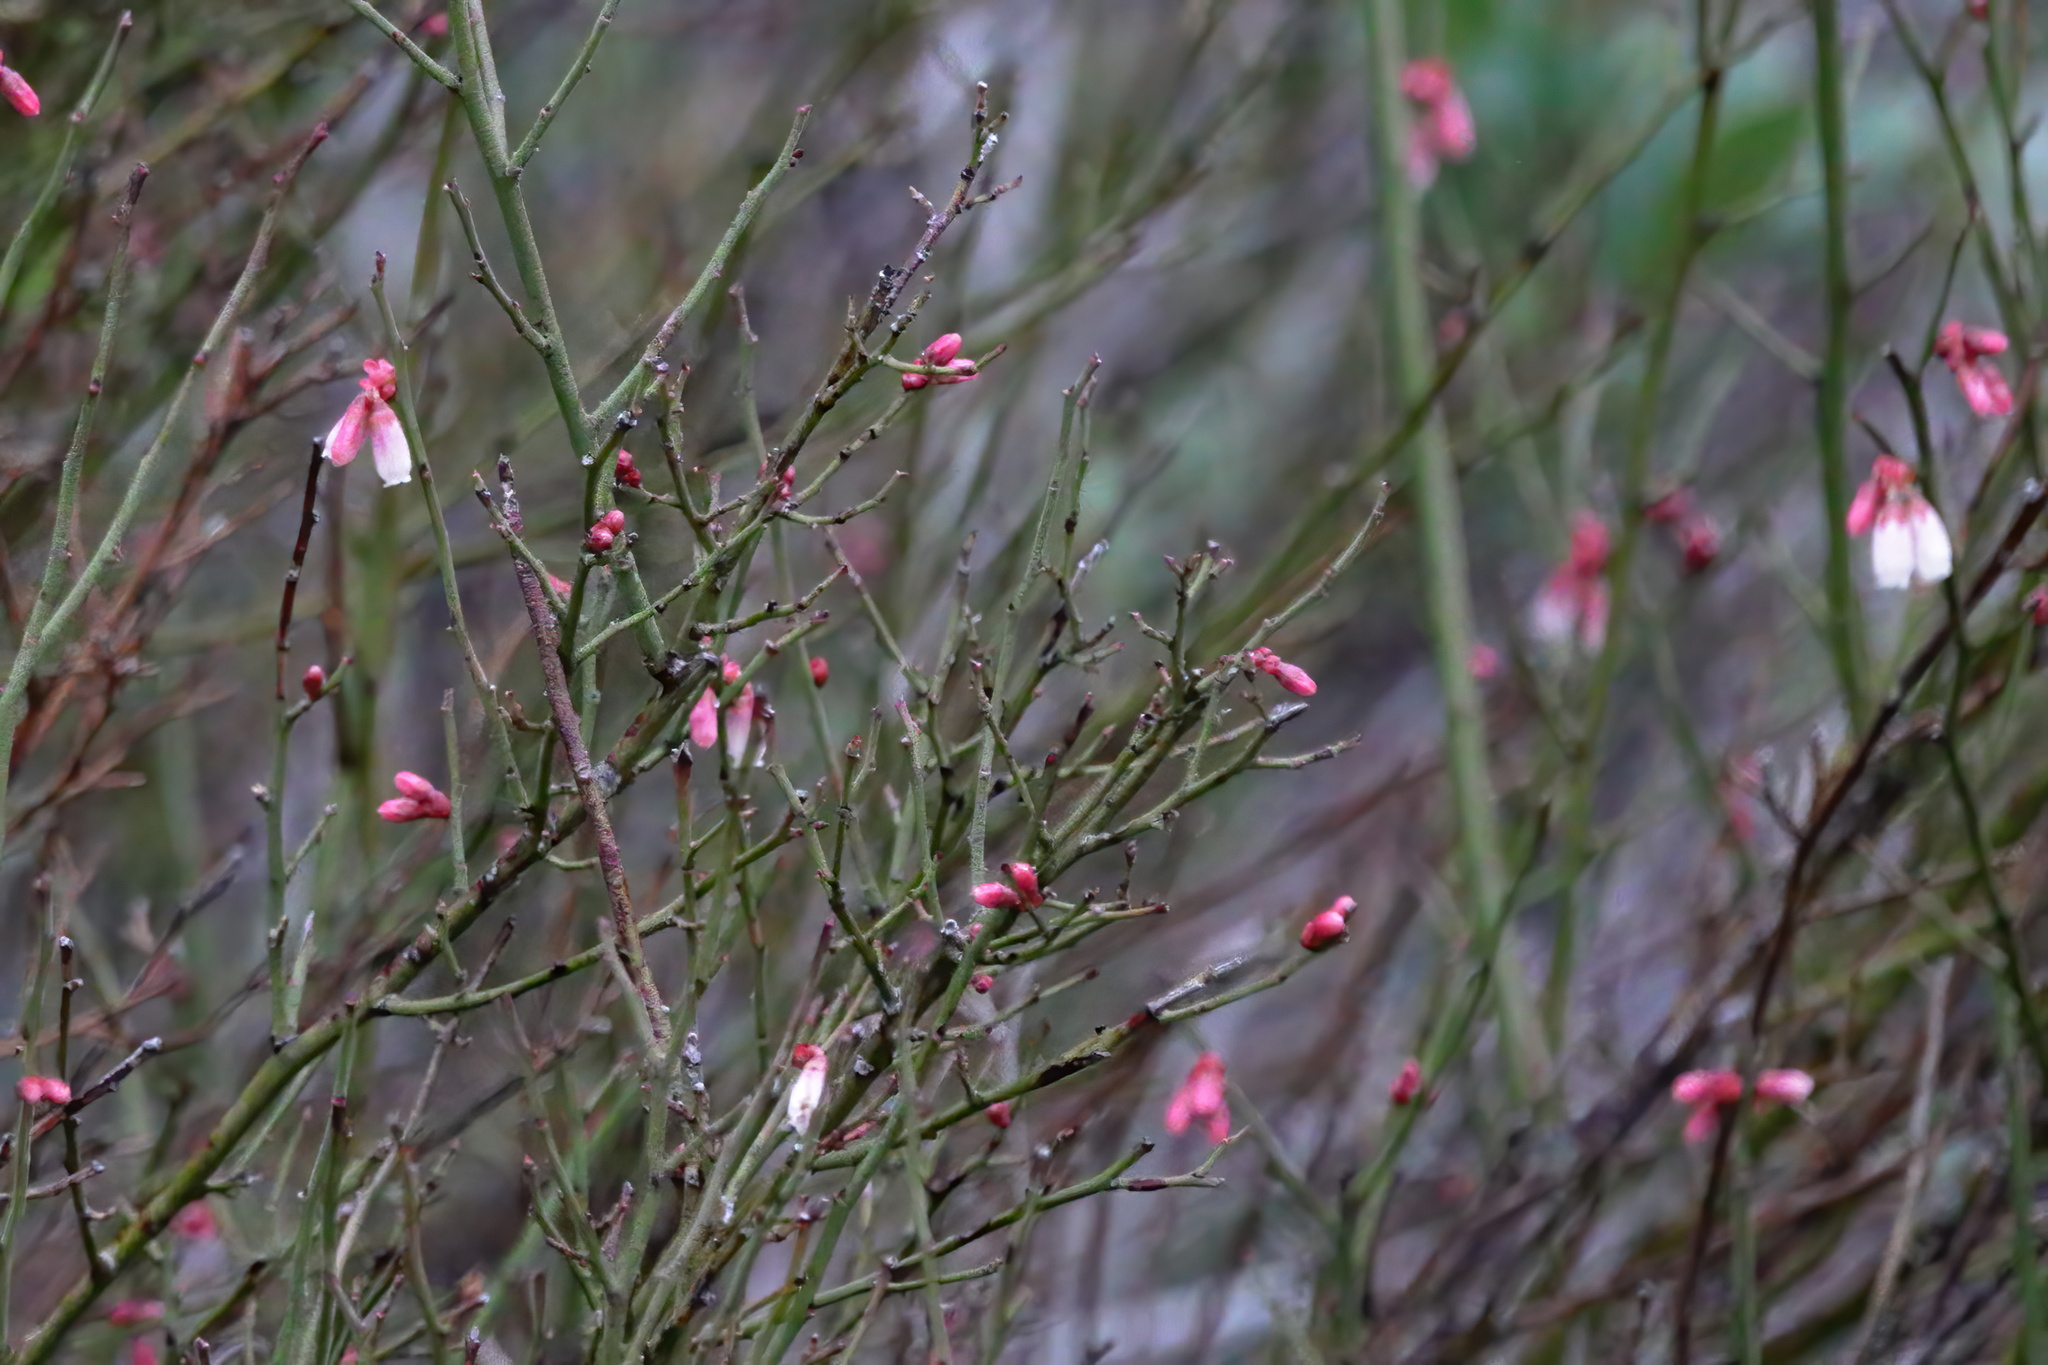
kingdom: Plantae
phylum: Tracheophyta
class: Magnoliopsida
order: Ericales
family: Ericaceae
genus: Vaccinium
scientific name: Vaccinium corymbosum
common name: Blueberry
